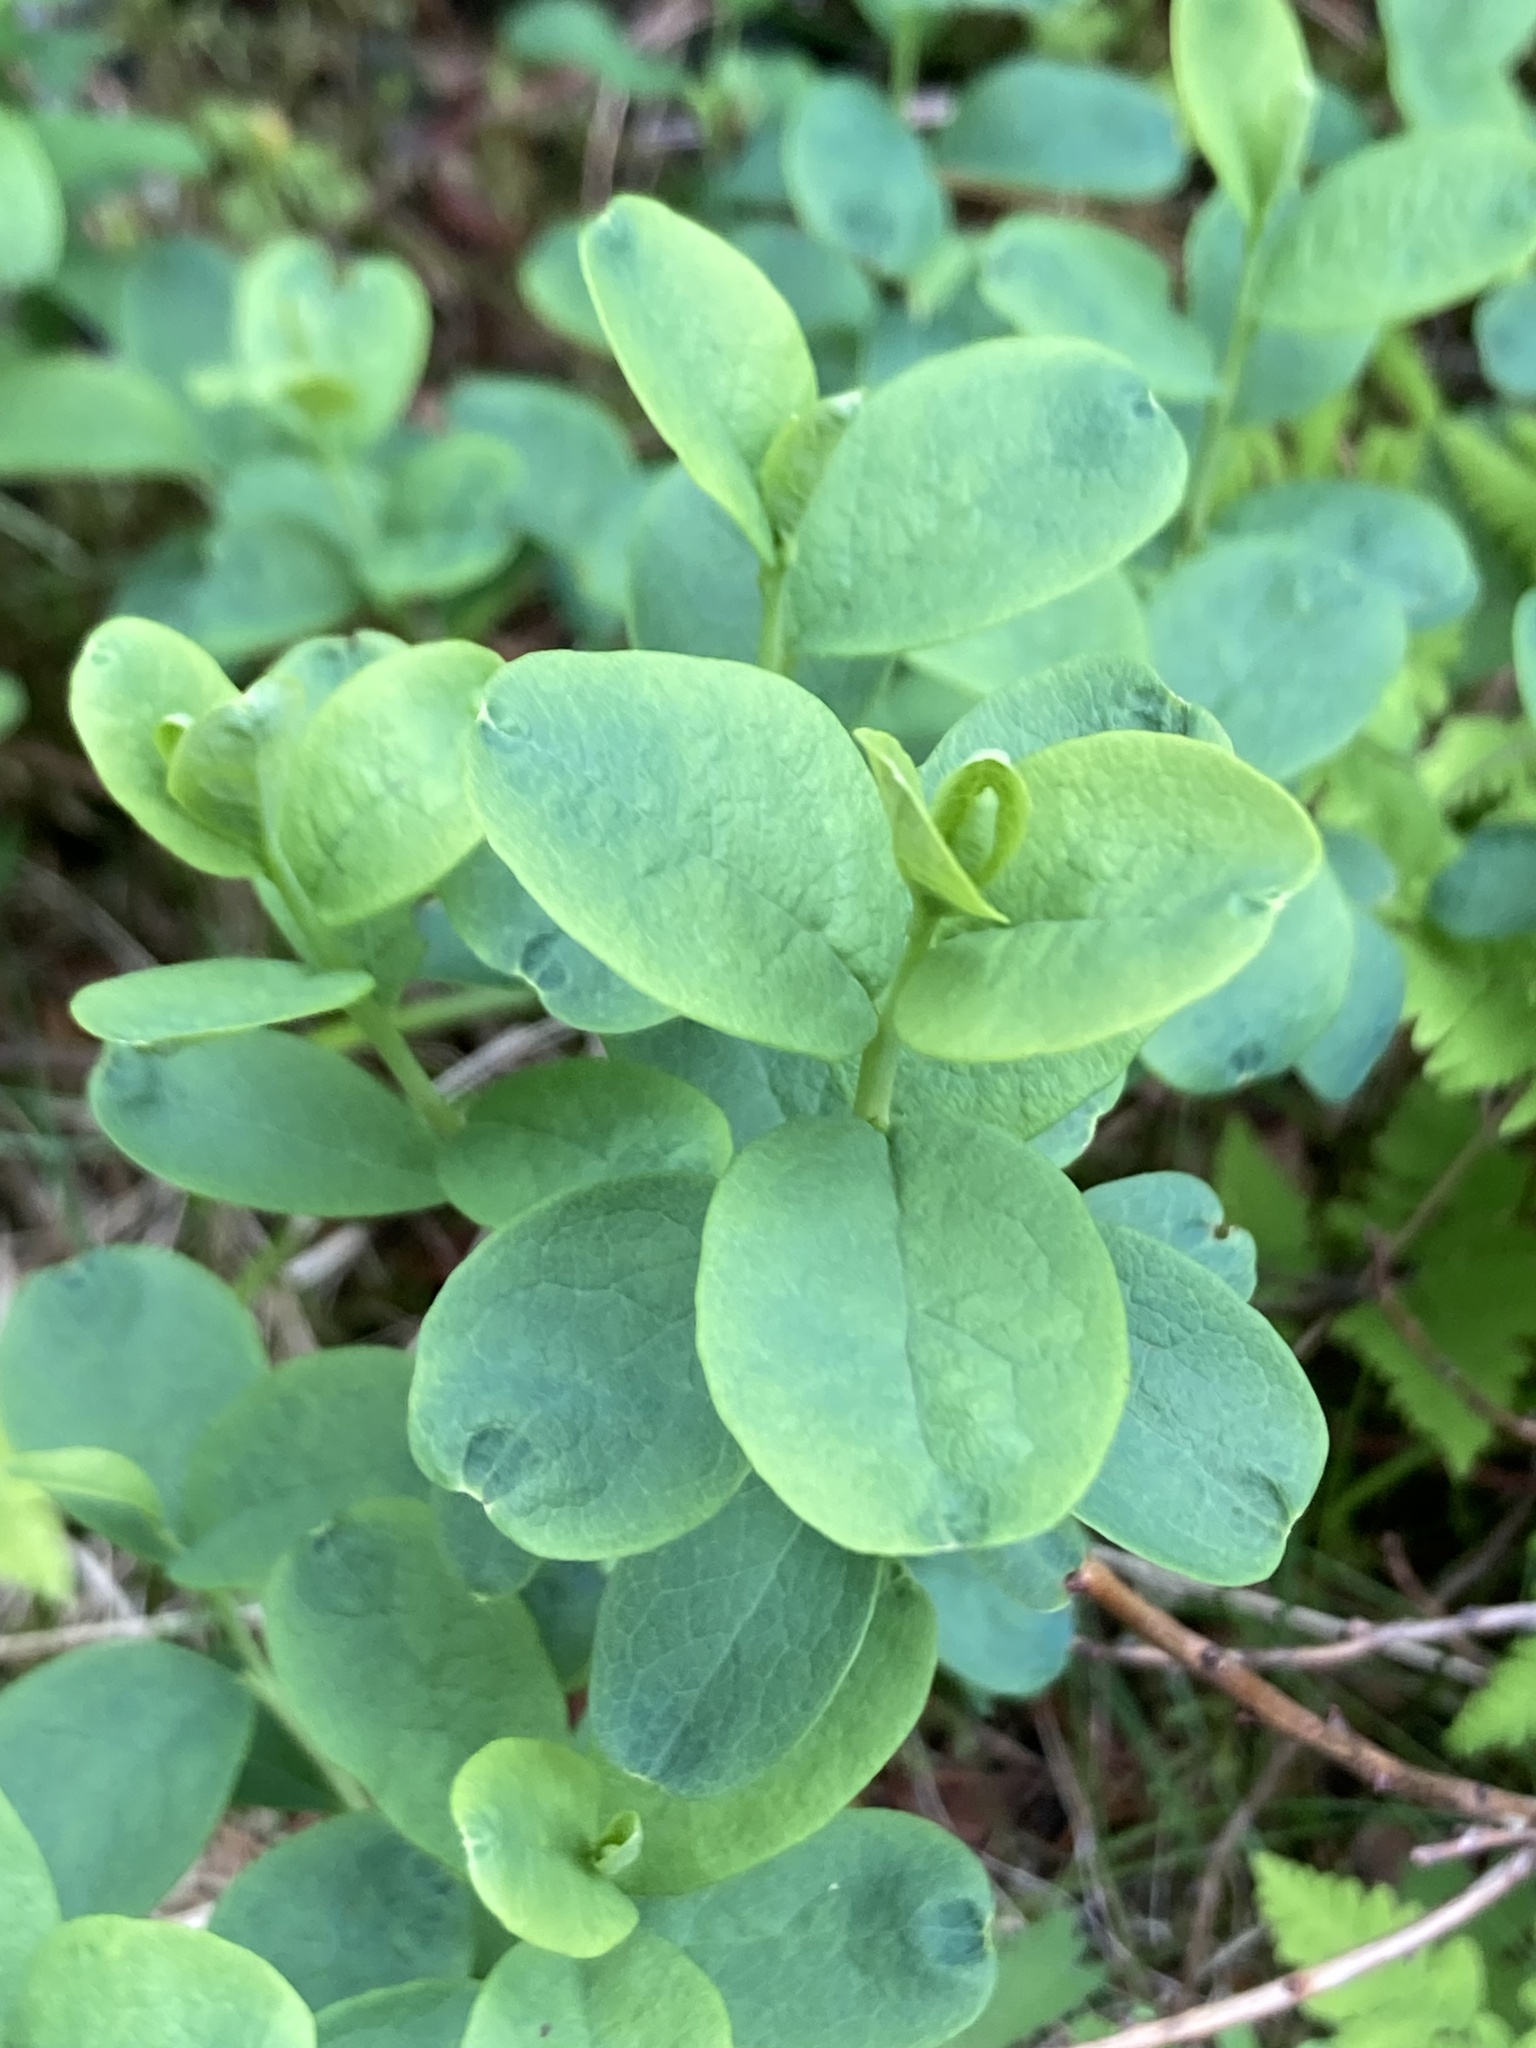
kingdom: Plantae
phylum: Tracheophyta
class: Magnoliopsida
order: Ericales
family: Ericaceae
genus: Vaccinium
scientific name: Vaccinium uliginosum
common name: Bog bilberry
